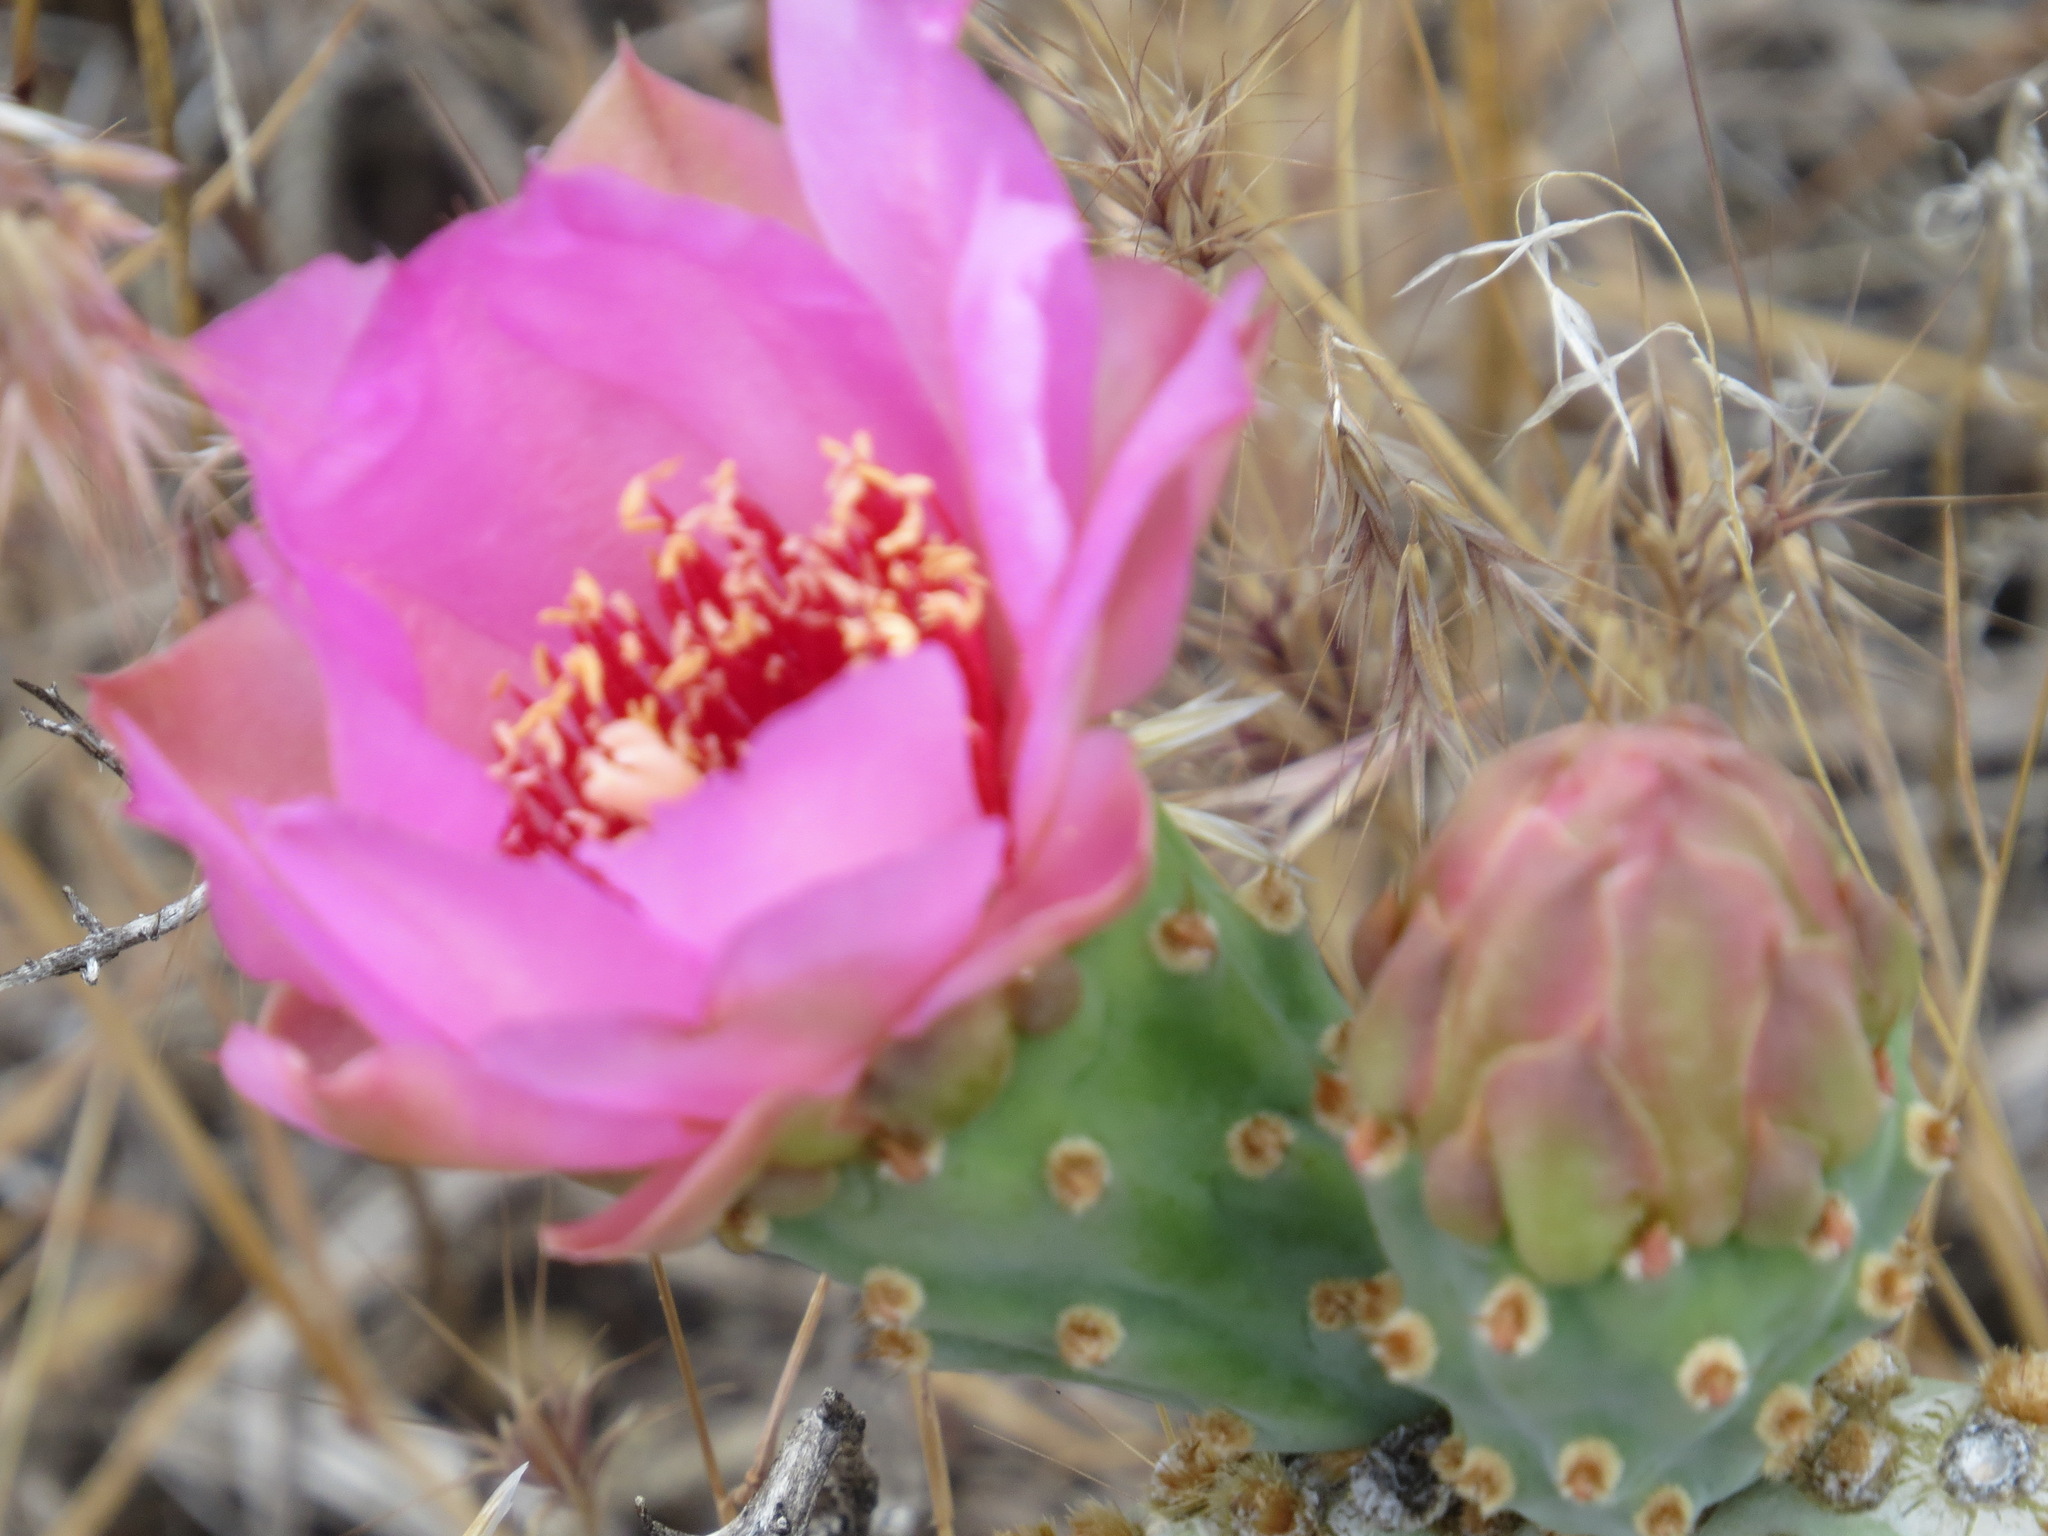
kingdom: Plantae
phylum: Tracheophyta
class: Magnoliopsida
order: Caryophyllales
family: Cactaceae
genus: Opuntia
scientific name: Opuntia basilaris
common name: Beavertail prickly-pear
